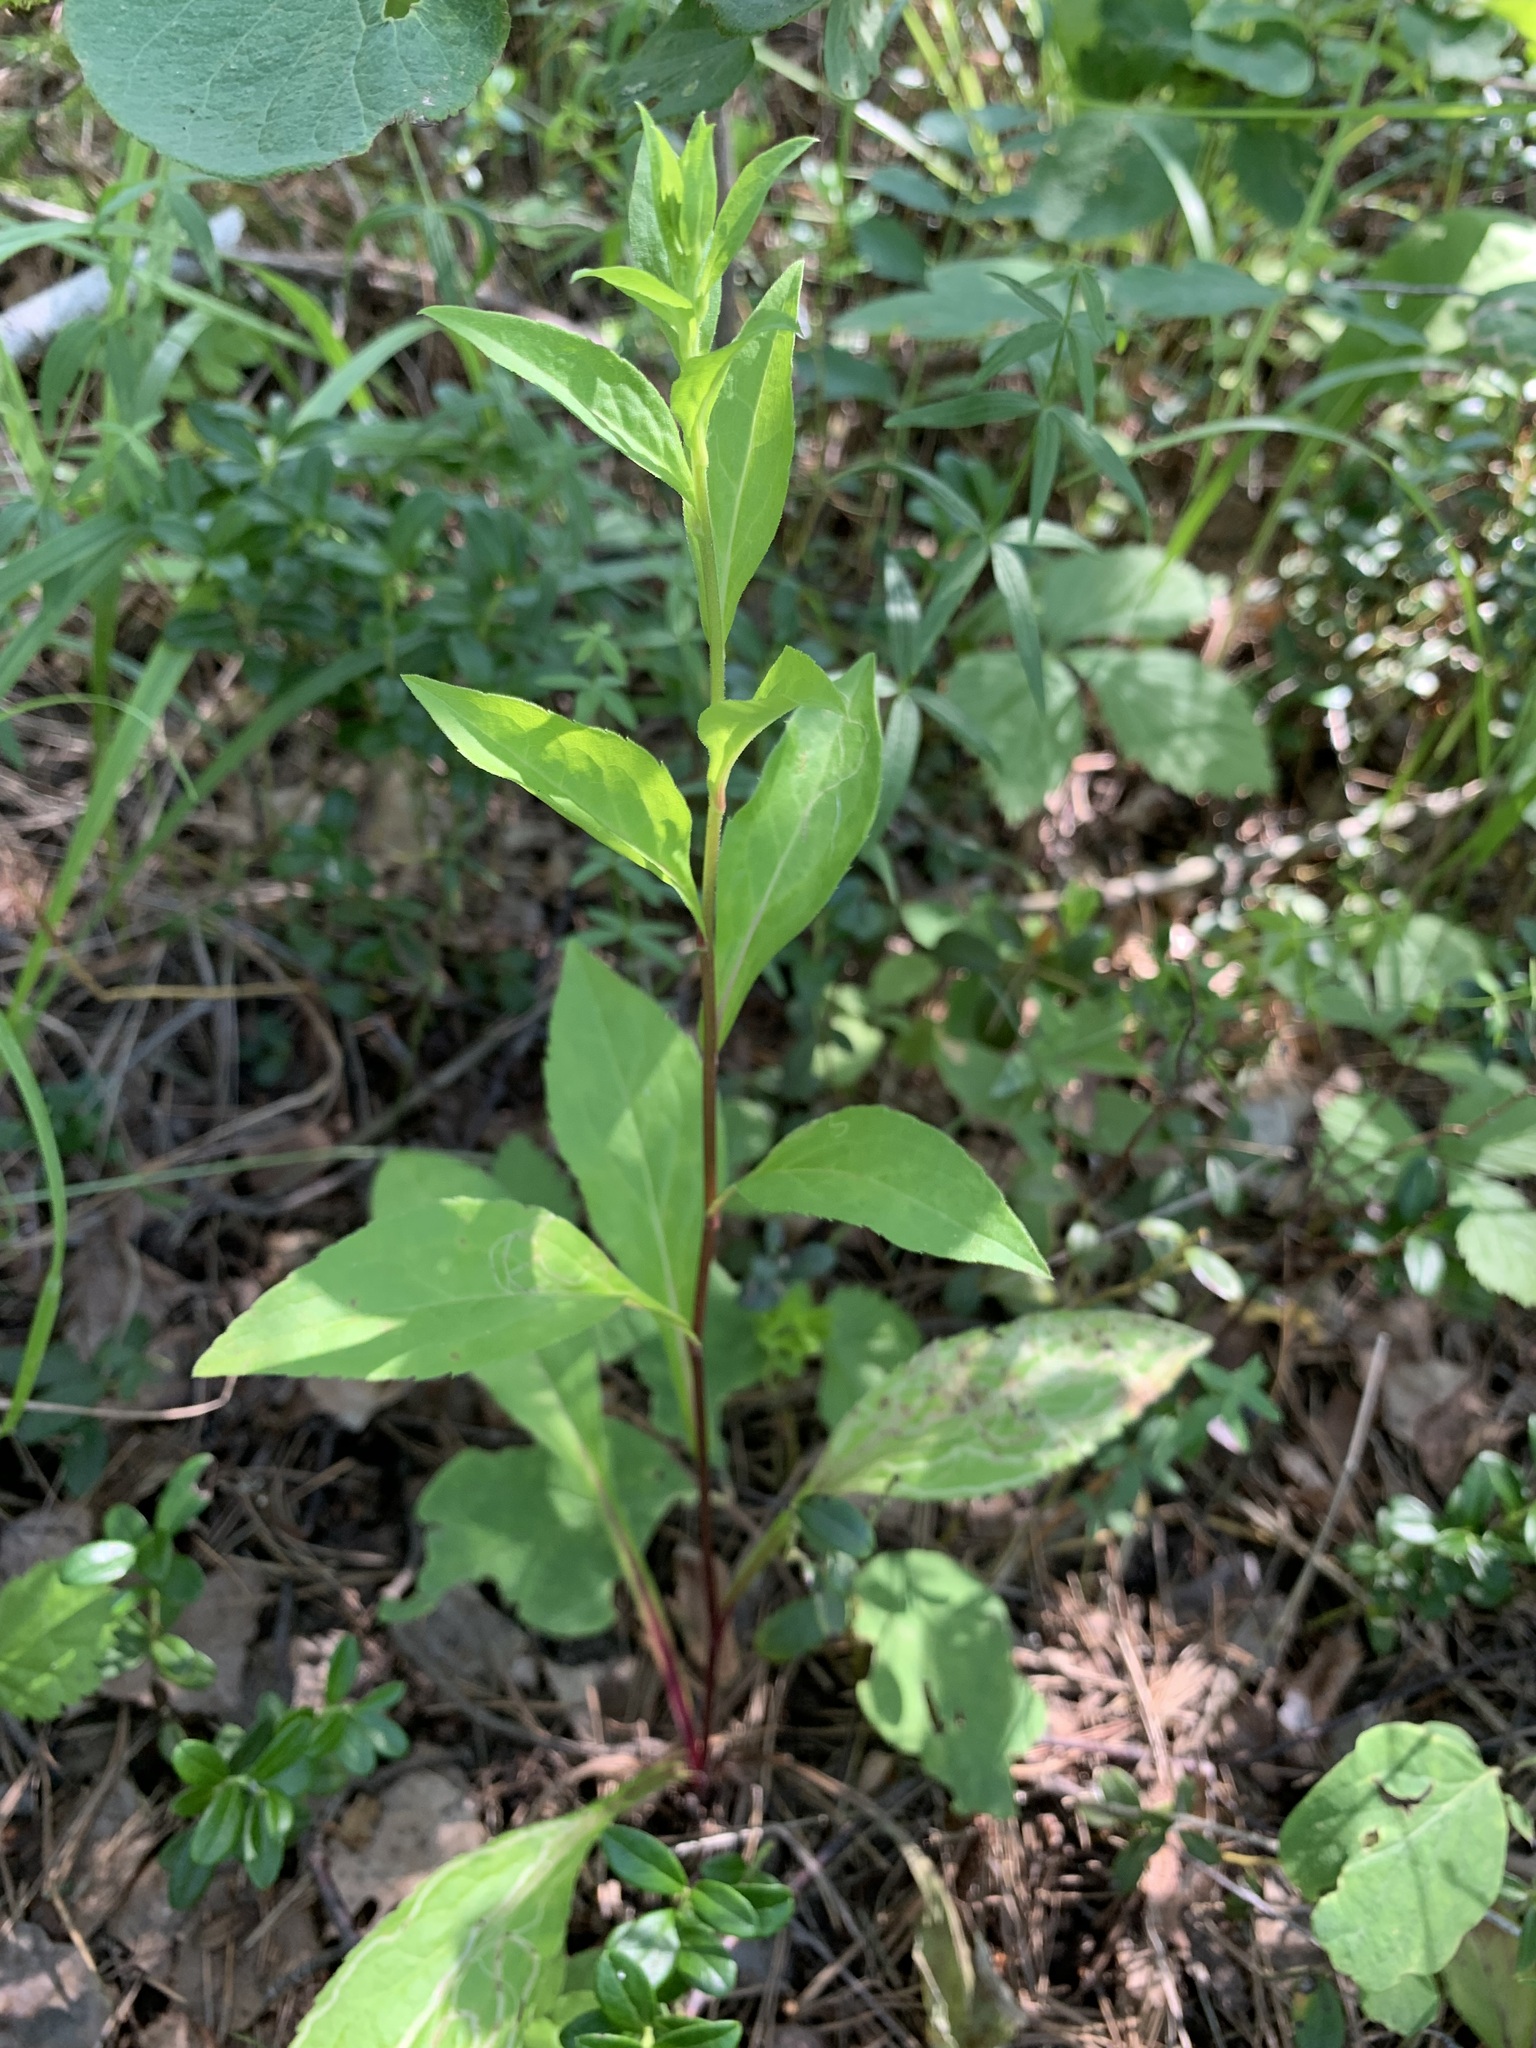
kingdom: Plantae
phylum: Tracheophyta
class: Magnoliopsida
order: Asterales
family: Asteraceae
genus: Solidago
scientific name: Solidago virgaurea
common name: Goldenrod
